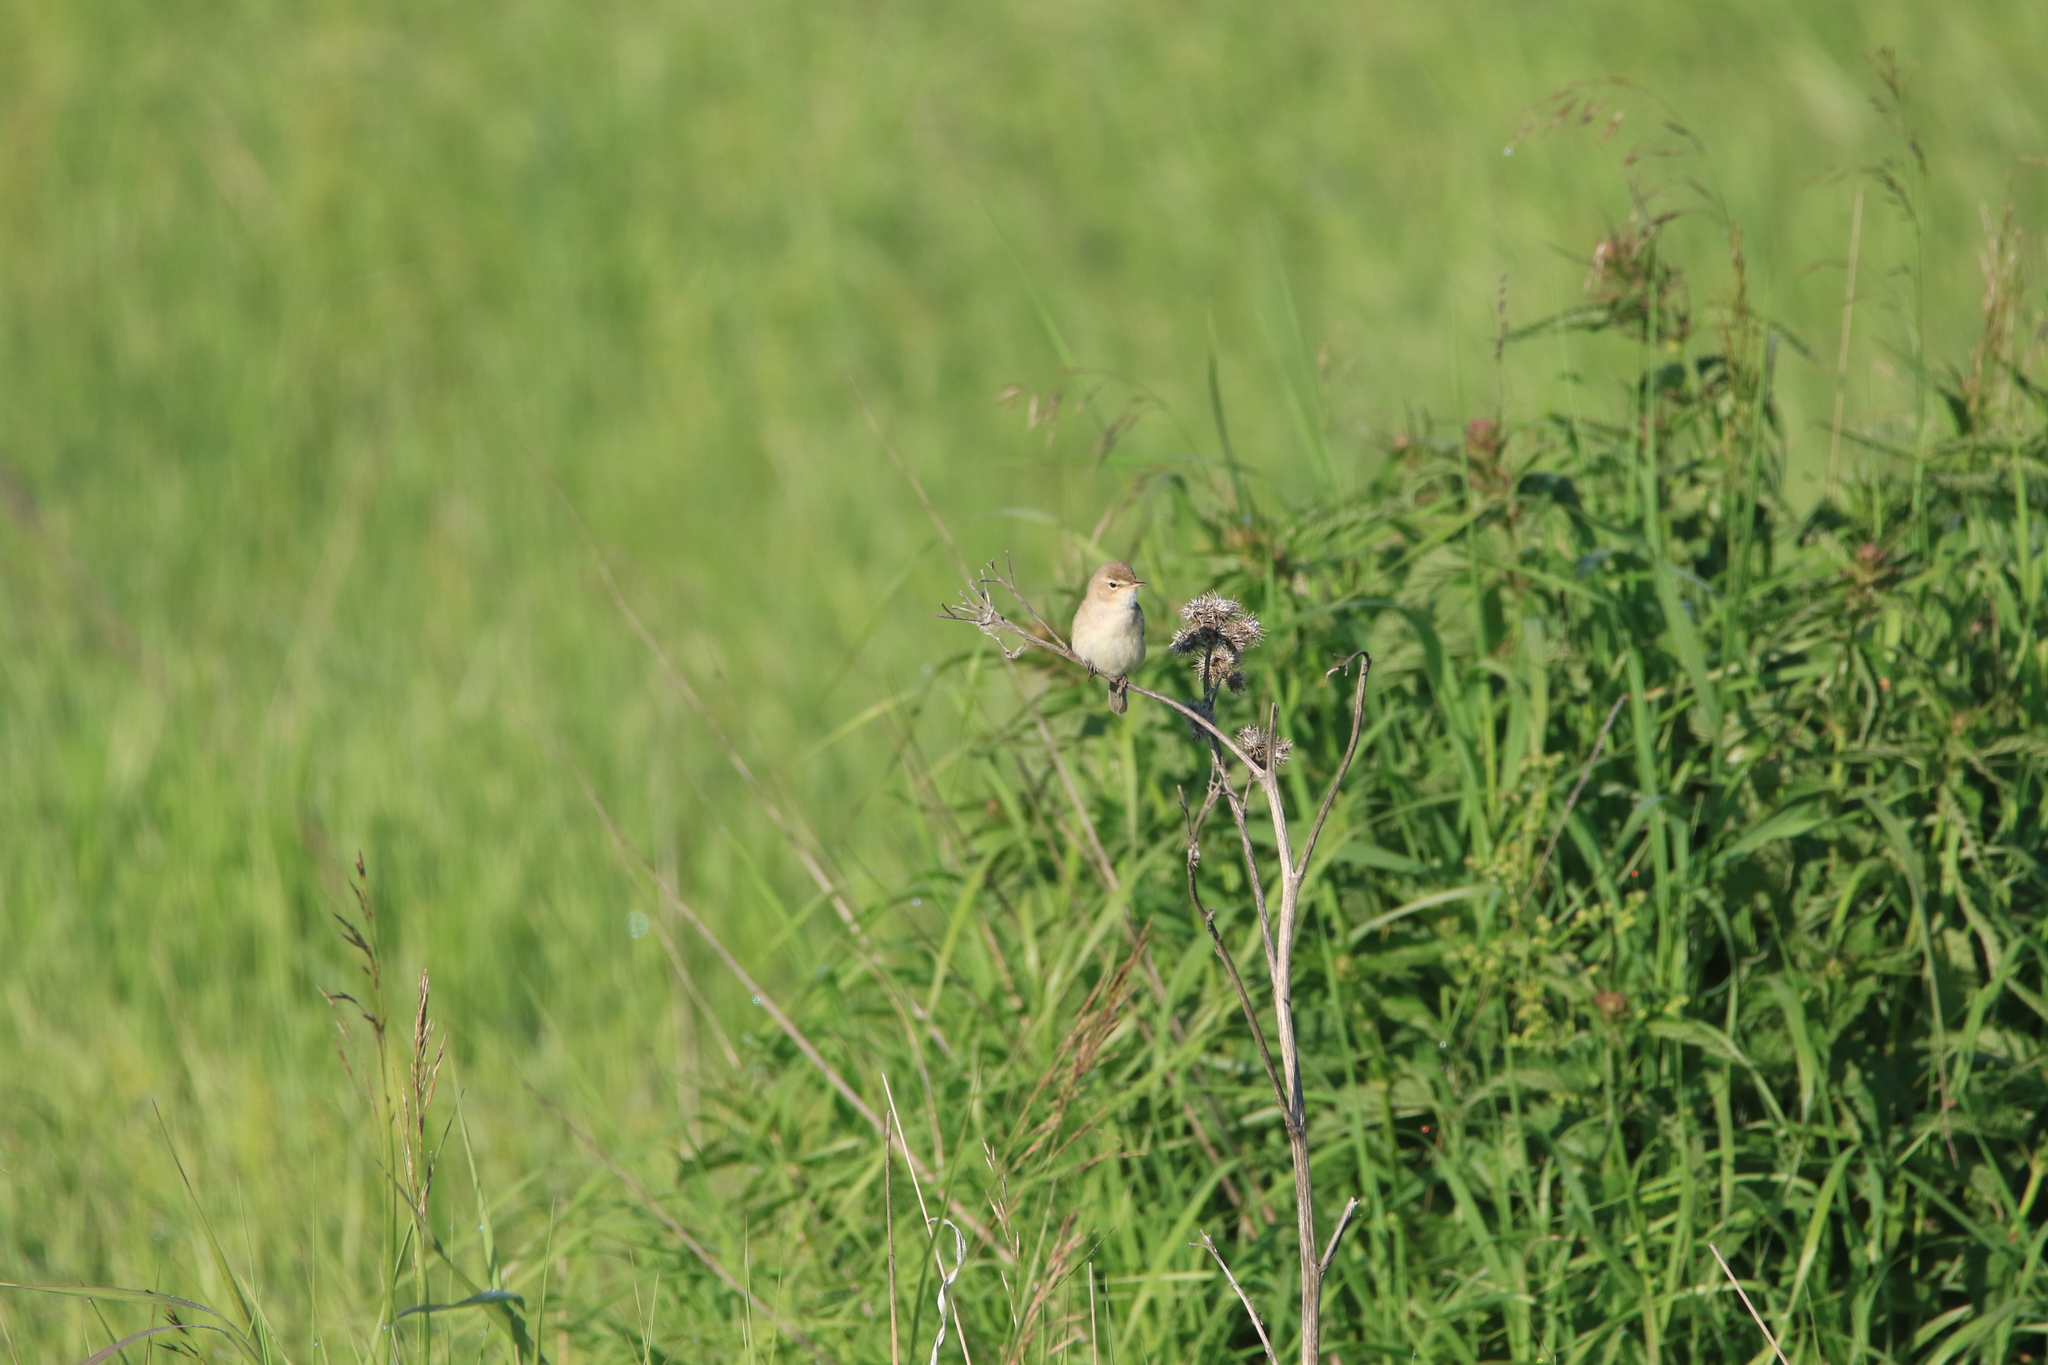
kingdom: Animalia
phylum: Chordata
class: Aves
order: Passeriformes
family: Acrocephalidae
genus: Iduna
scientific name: Iduna caligata
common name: Booted warbler
